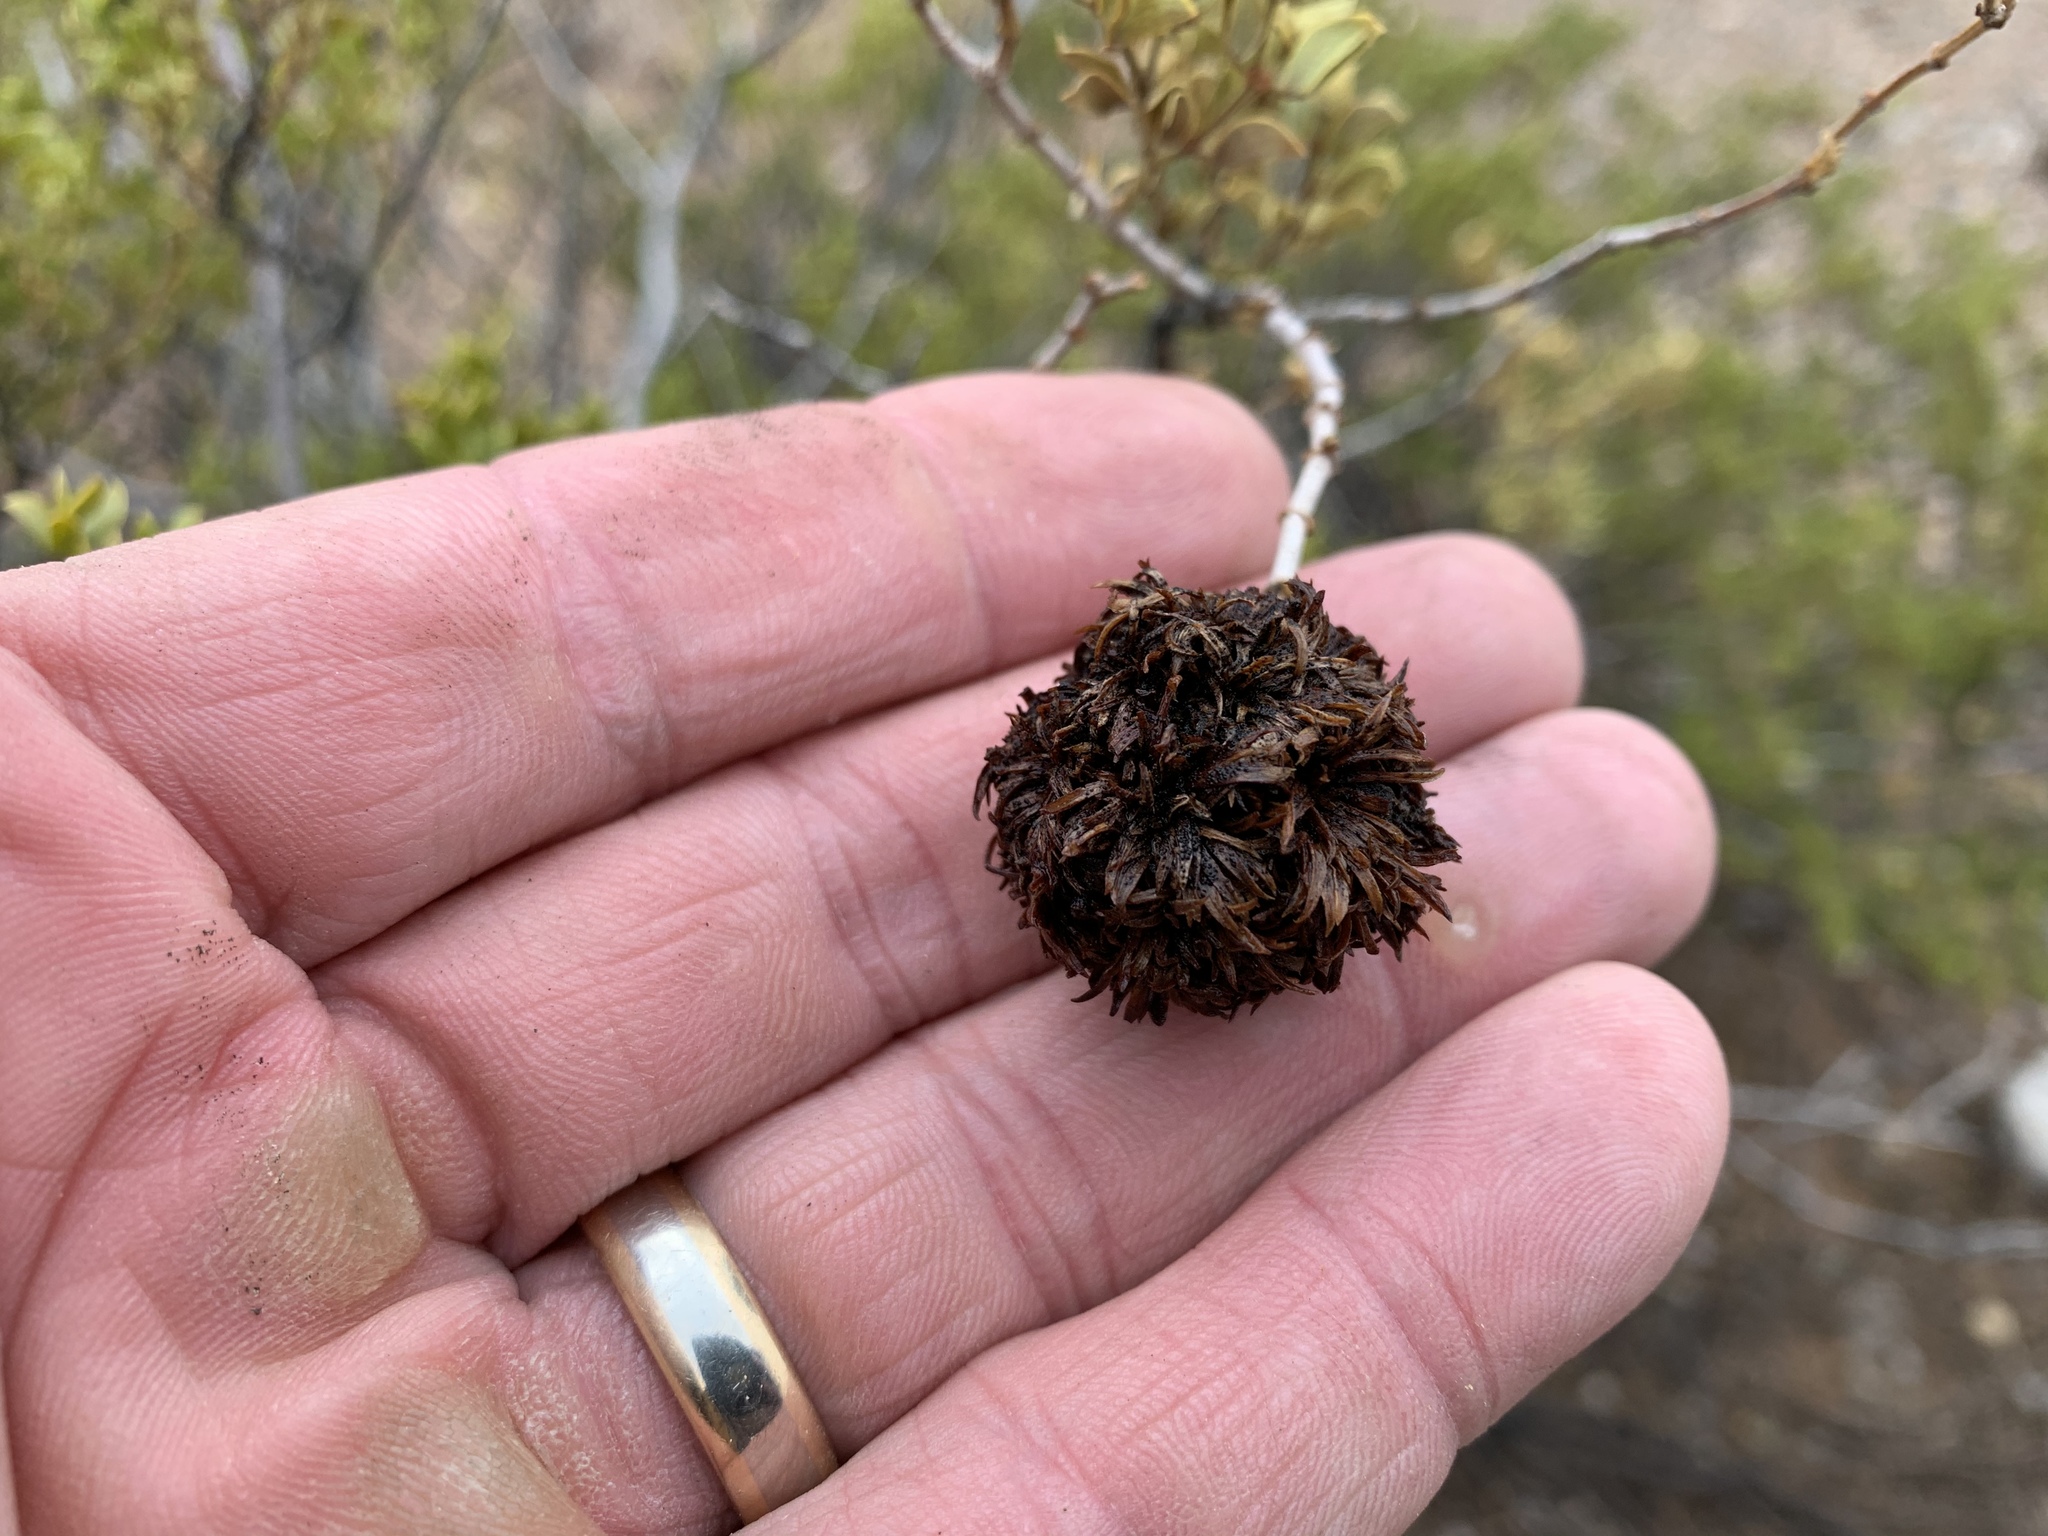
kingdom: Animalia
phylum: Arthropoda
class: Insecta
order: Diptera
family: Cecidomyiidae
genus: Asphondylia
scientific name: Asphondylia auripila
